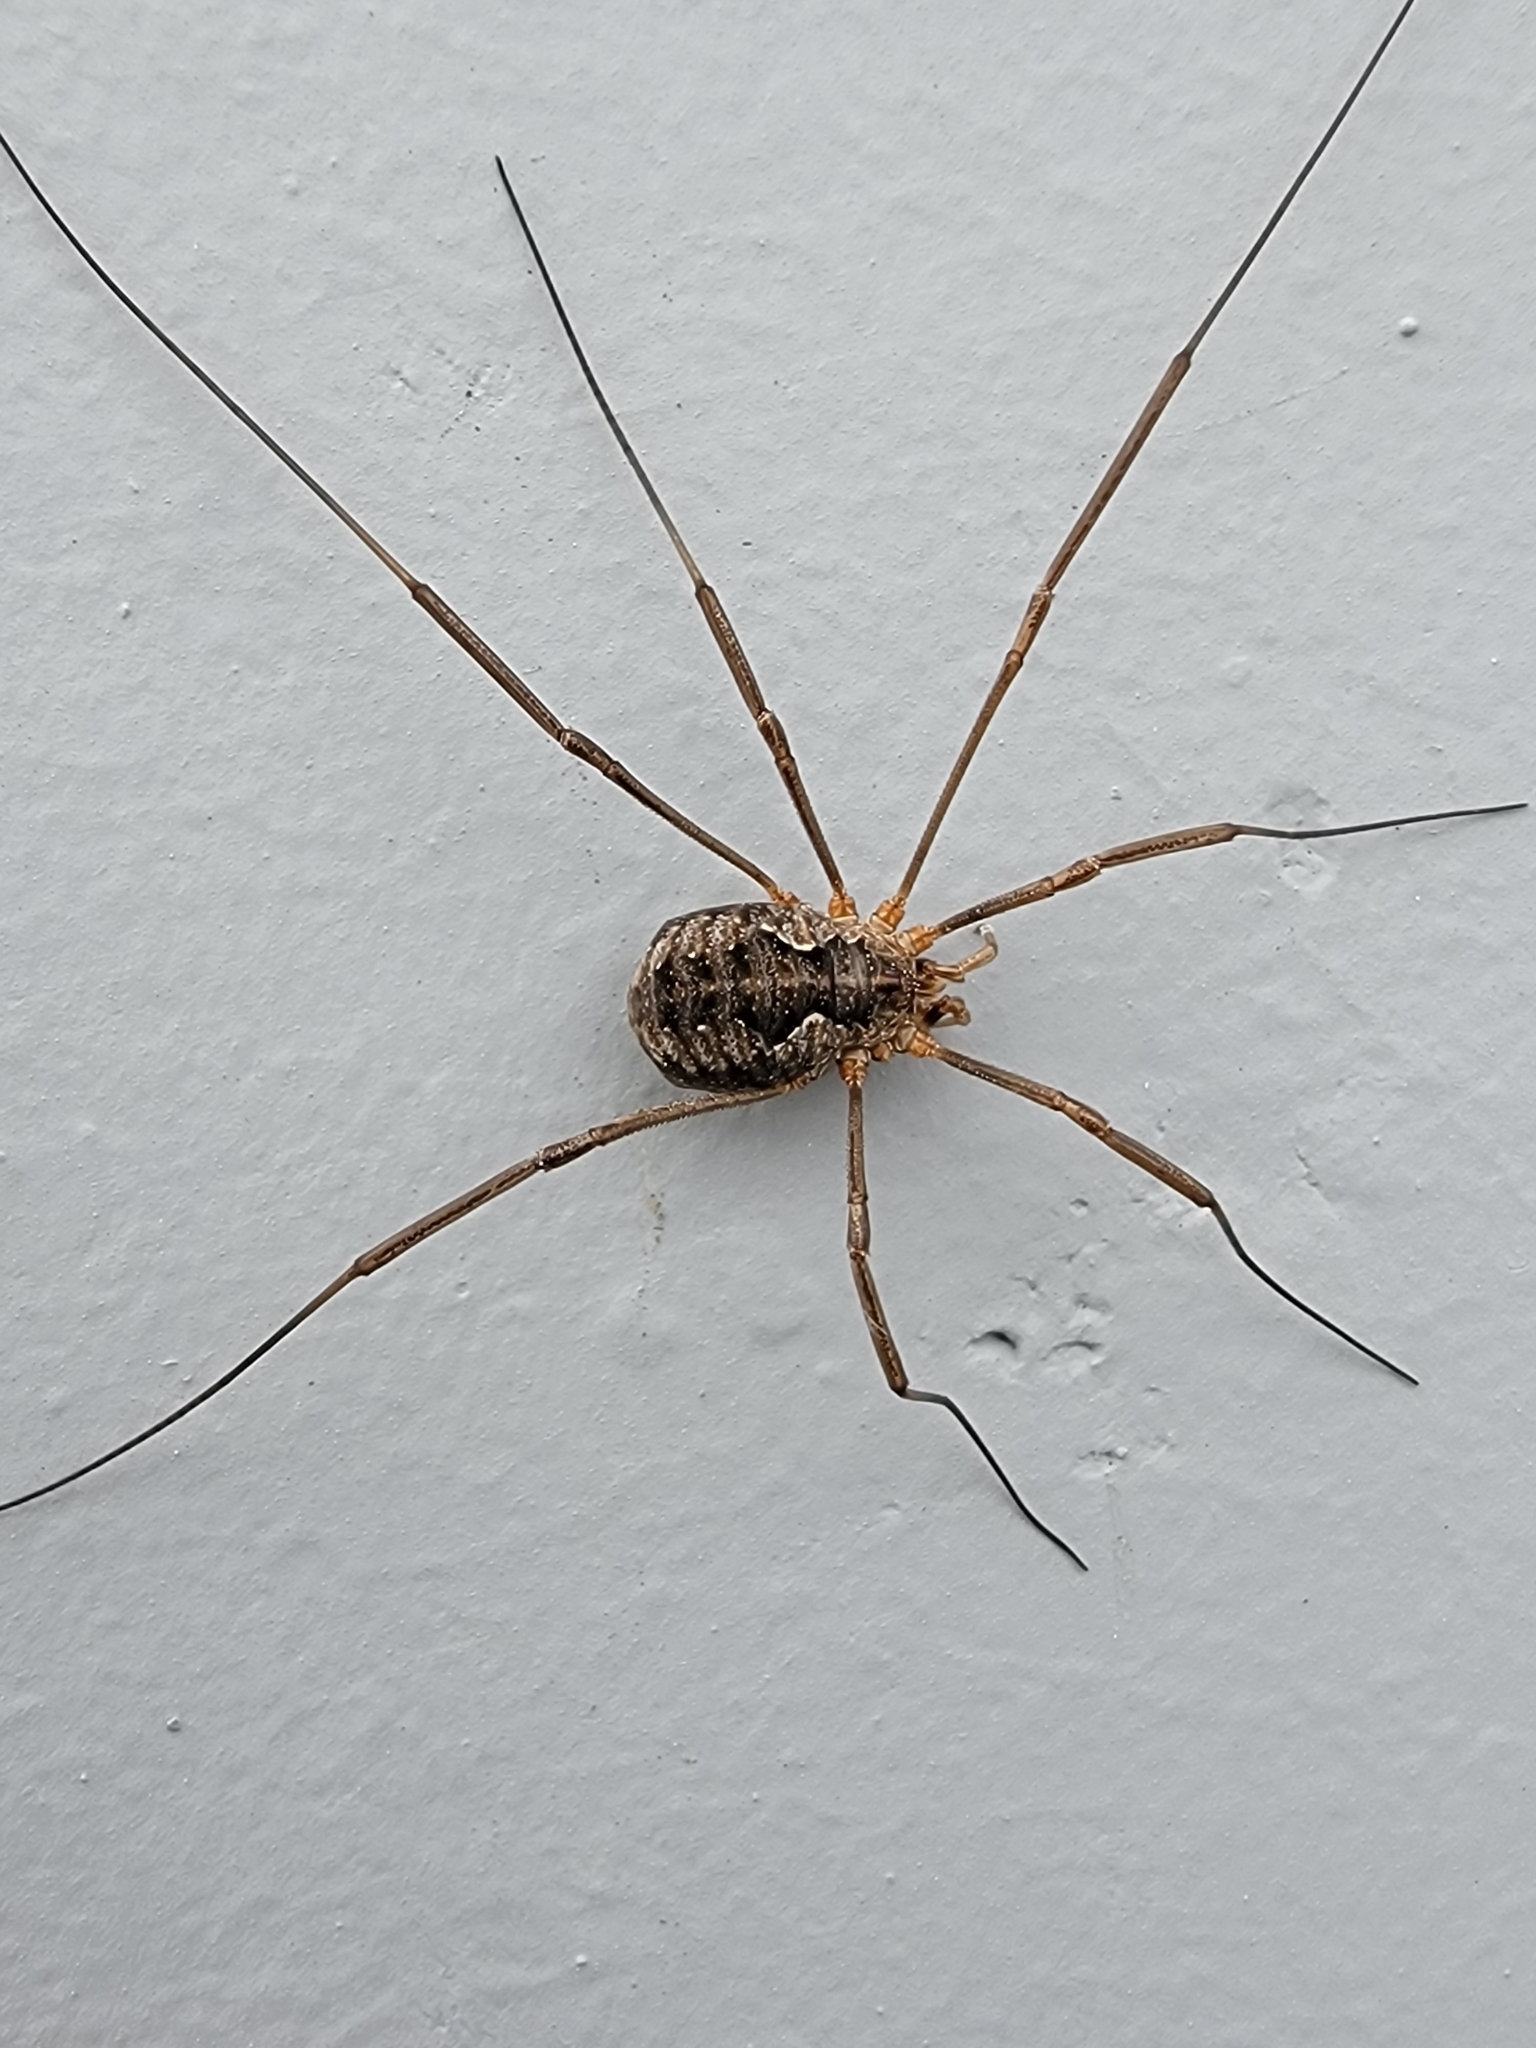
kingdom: Animalia
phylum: Arthropoda
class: Arachnida
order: Opiliones
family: Phalangiidae
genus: Phalangium
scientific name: Phalangium opilio
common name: Daddy longleg
